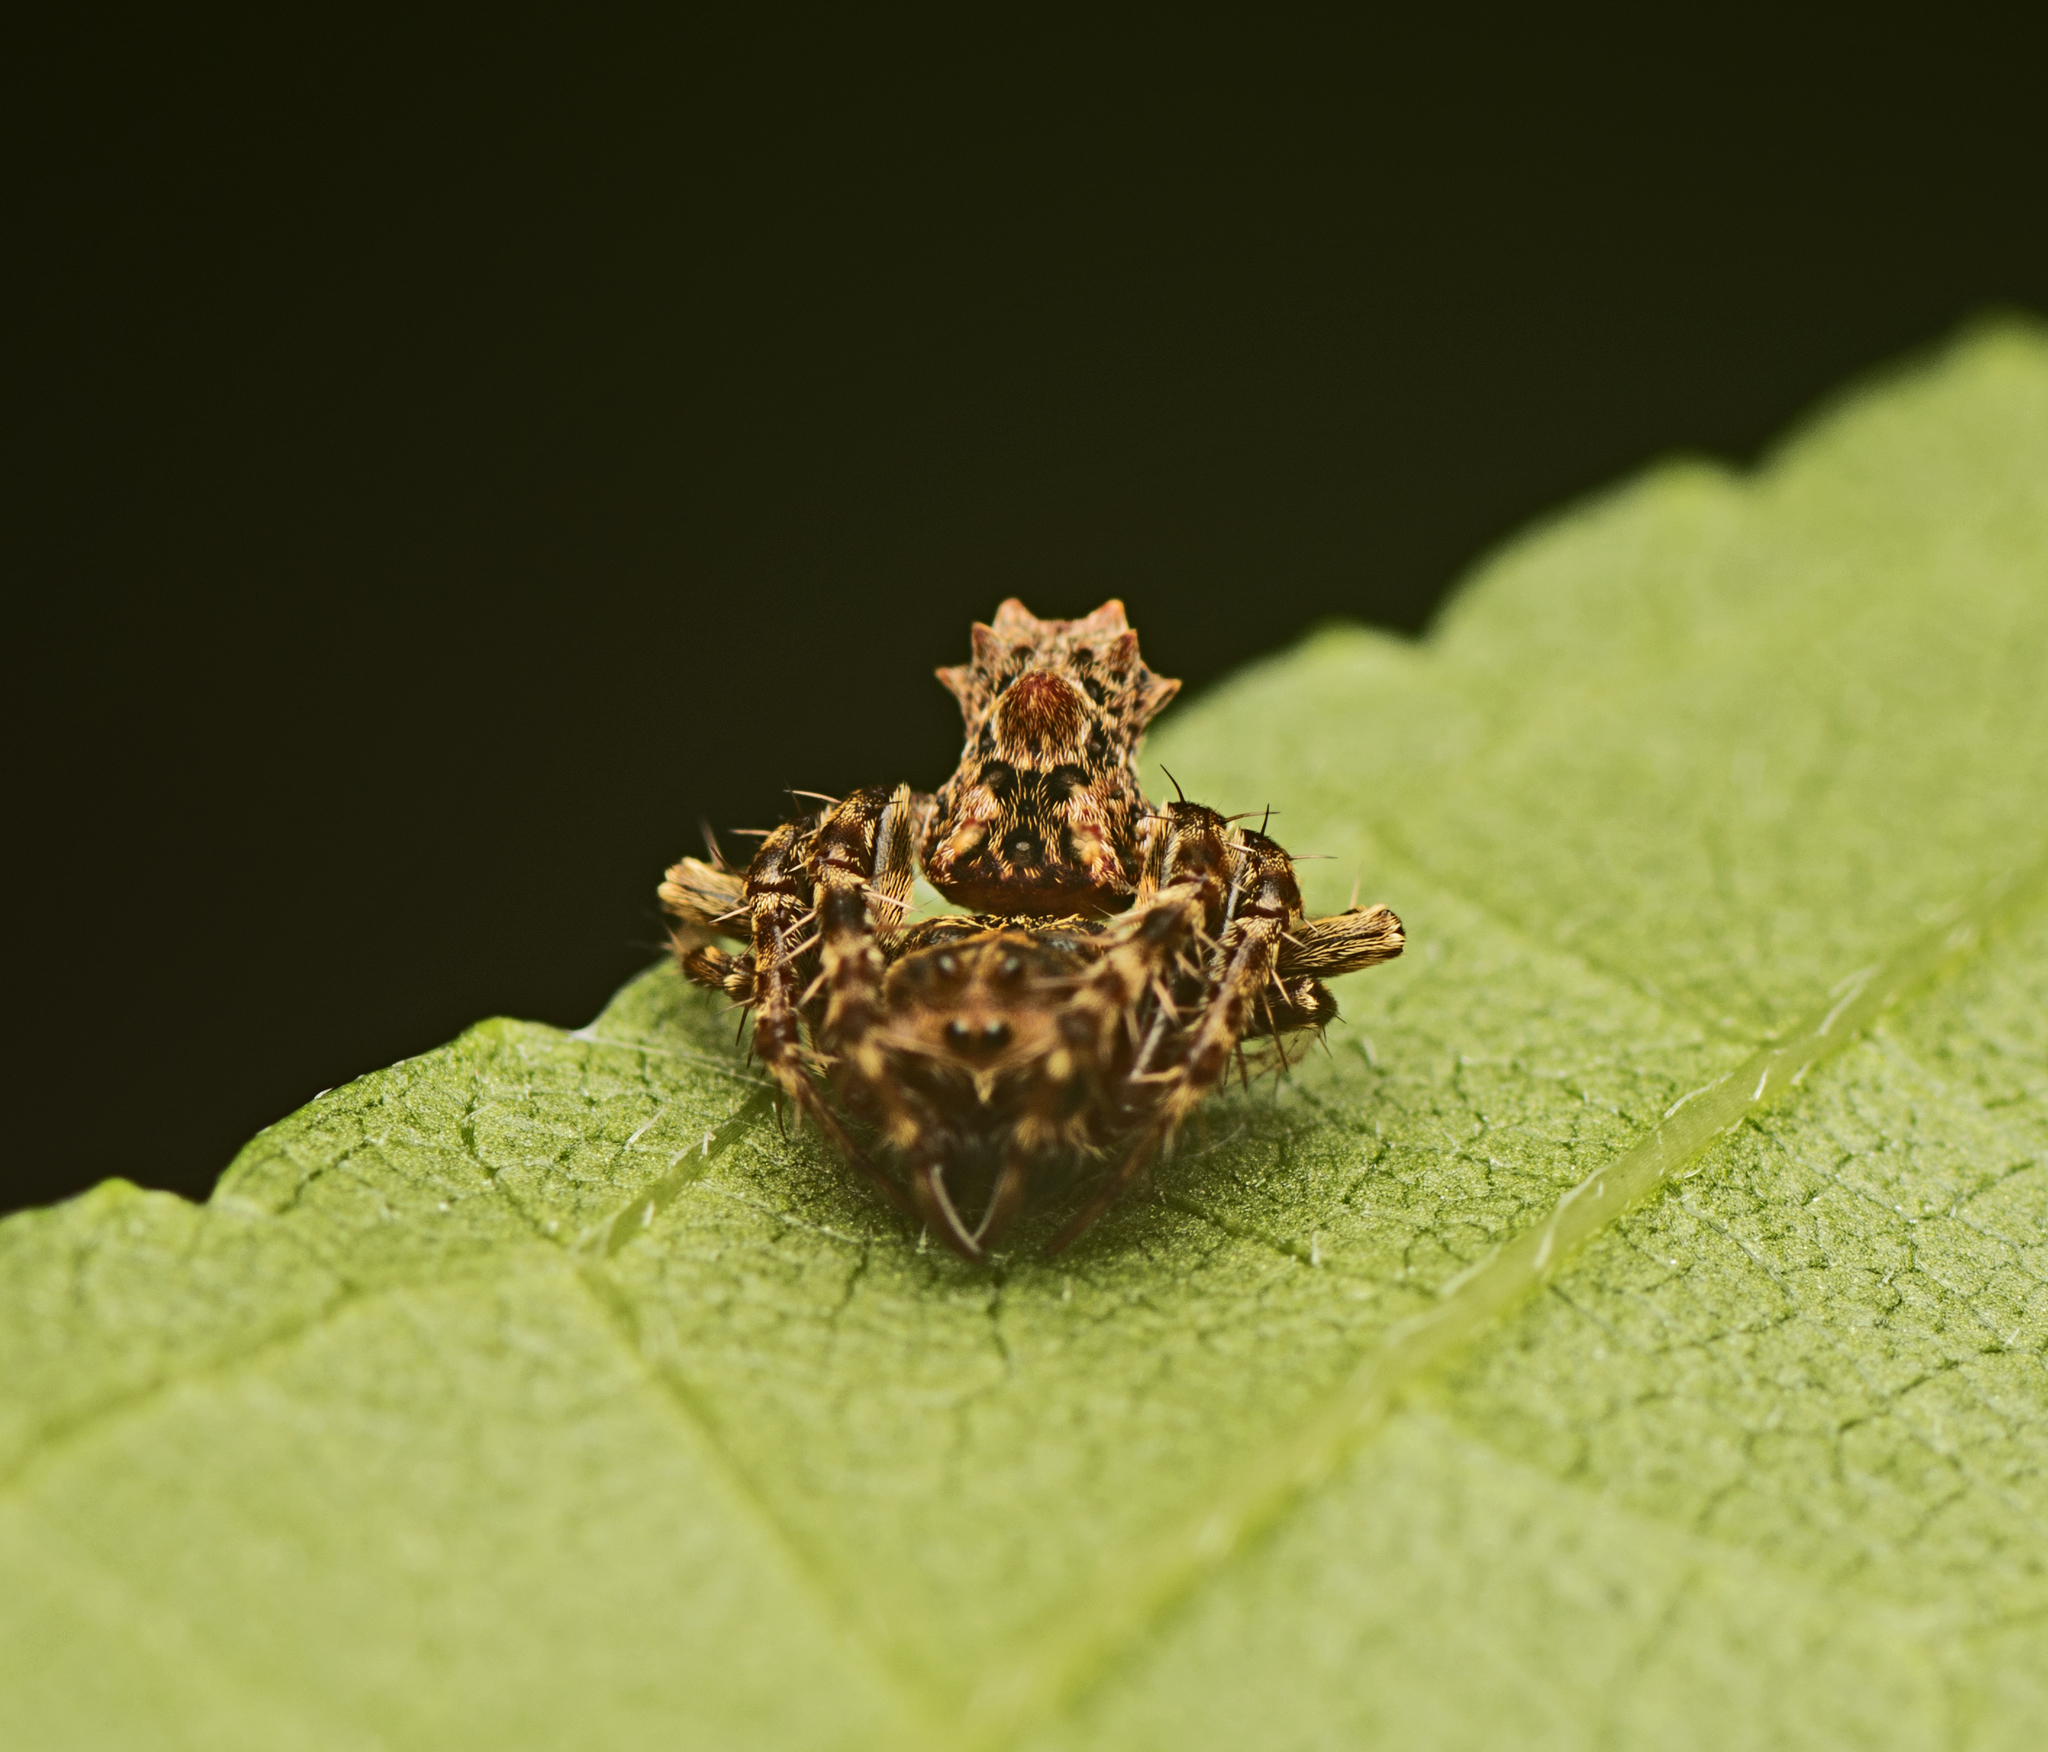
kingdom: Animalia
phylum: Arthropoda
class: Arachnida
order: Araneae
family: Arkyidae
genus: Arkys
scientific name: Arkys dilatatus
